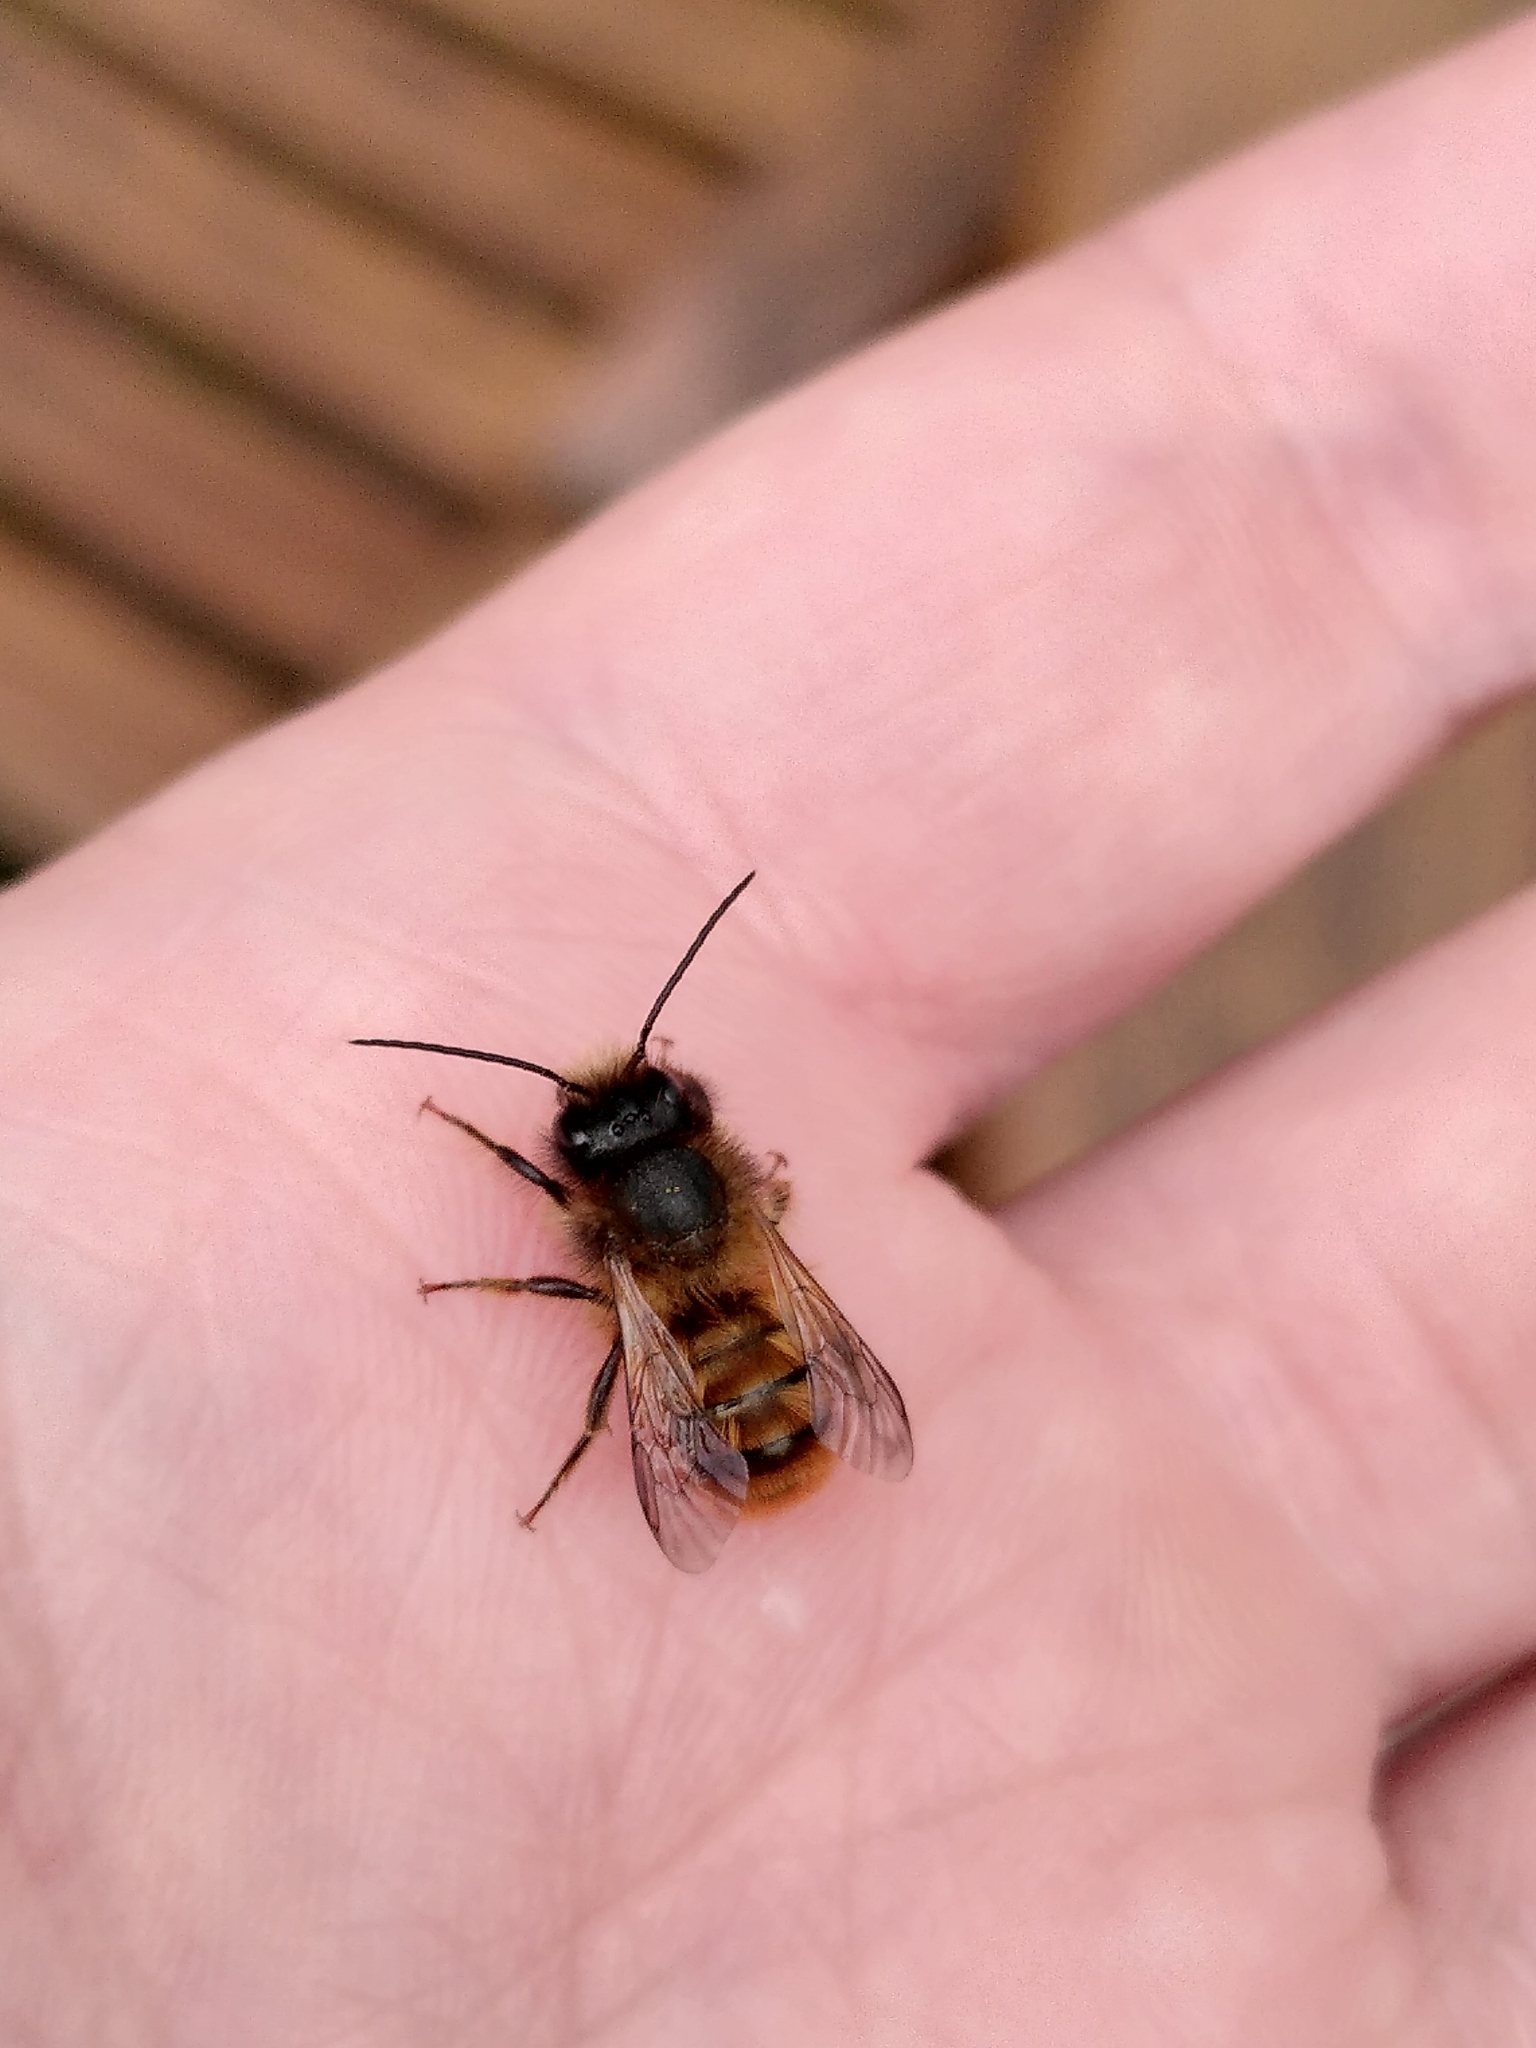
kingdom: Animalia
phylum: Arthropoda
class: Insecta
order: Hymenoptera
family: Megachilidae
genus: Osmia
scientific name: Osmia bicornis
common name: Red mason bee
